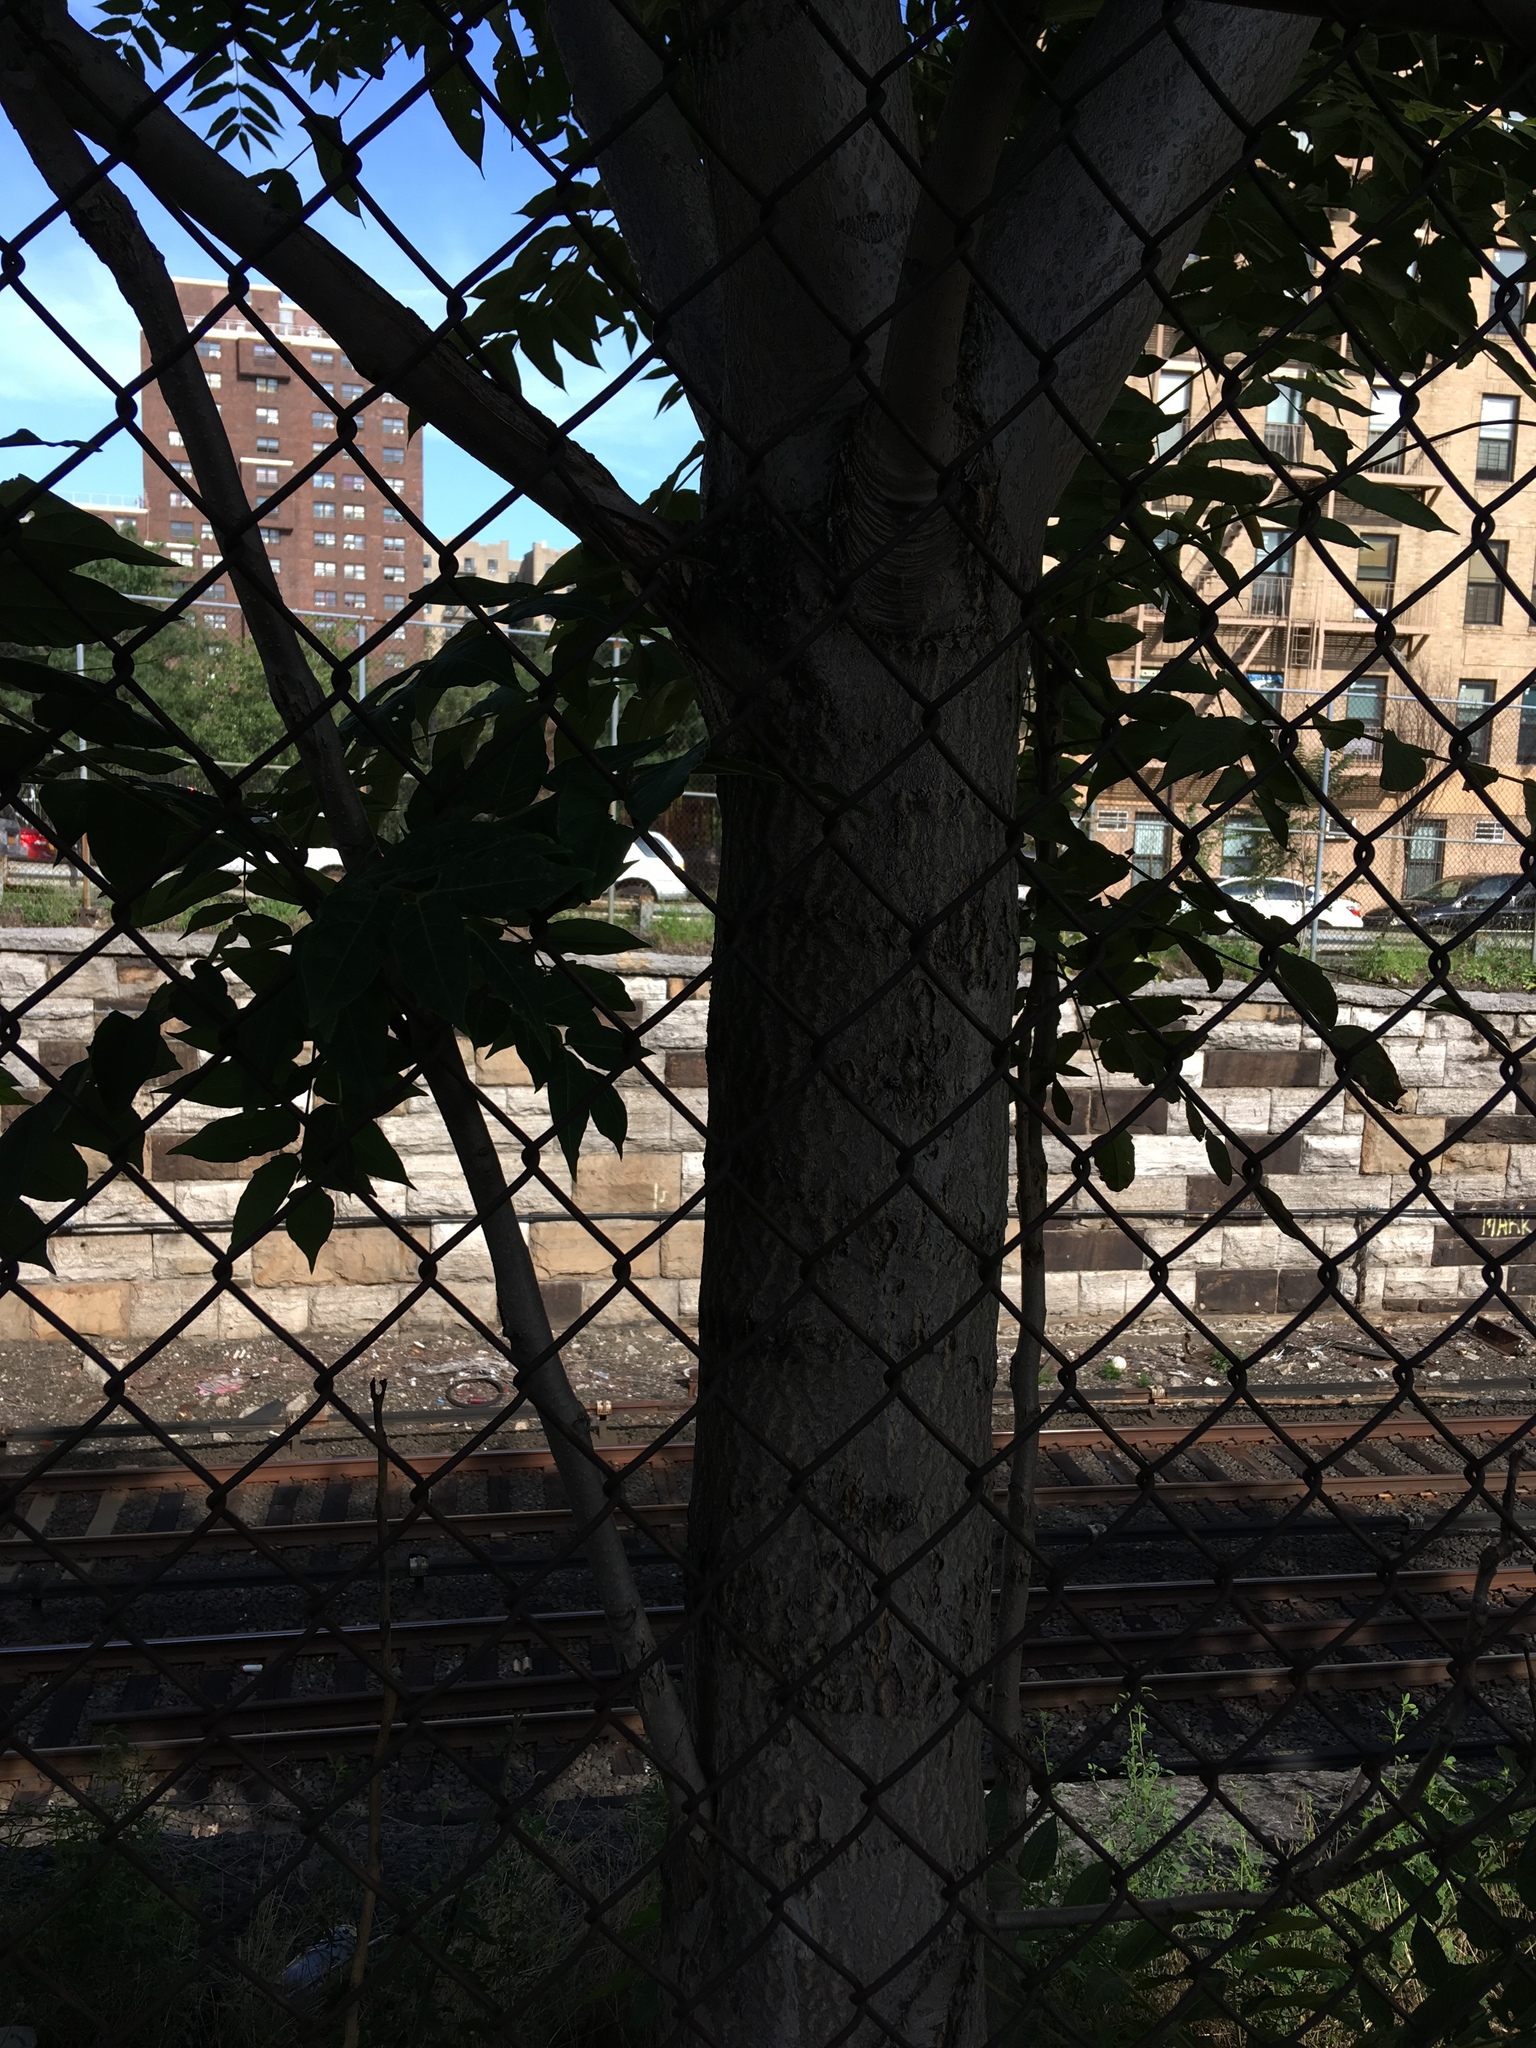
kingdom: Plantae
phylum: Tracheophyta
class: Magnoliopsida
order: Sapindales
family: Simaroubaceae
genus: Ailanthus
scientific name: Ailanthus altissima
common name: Tree-of-heaven
